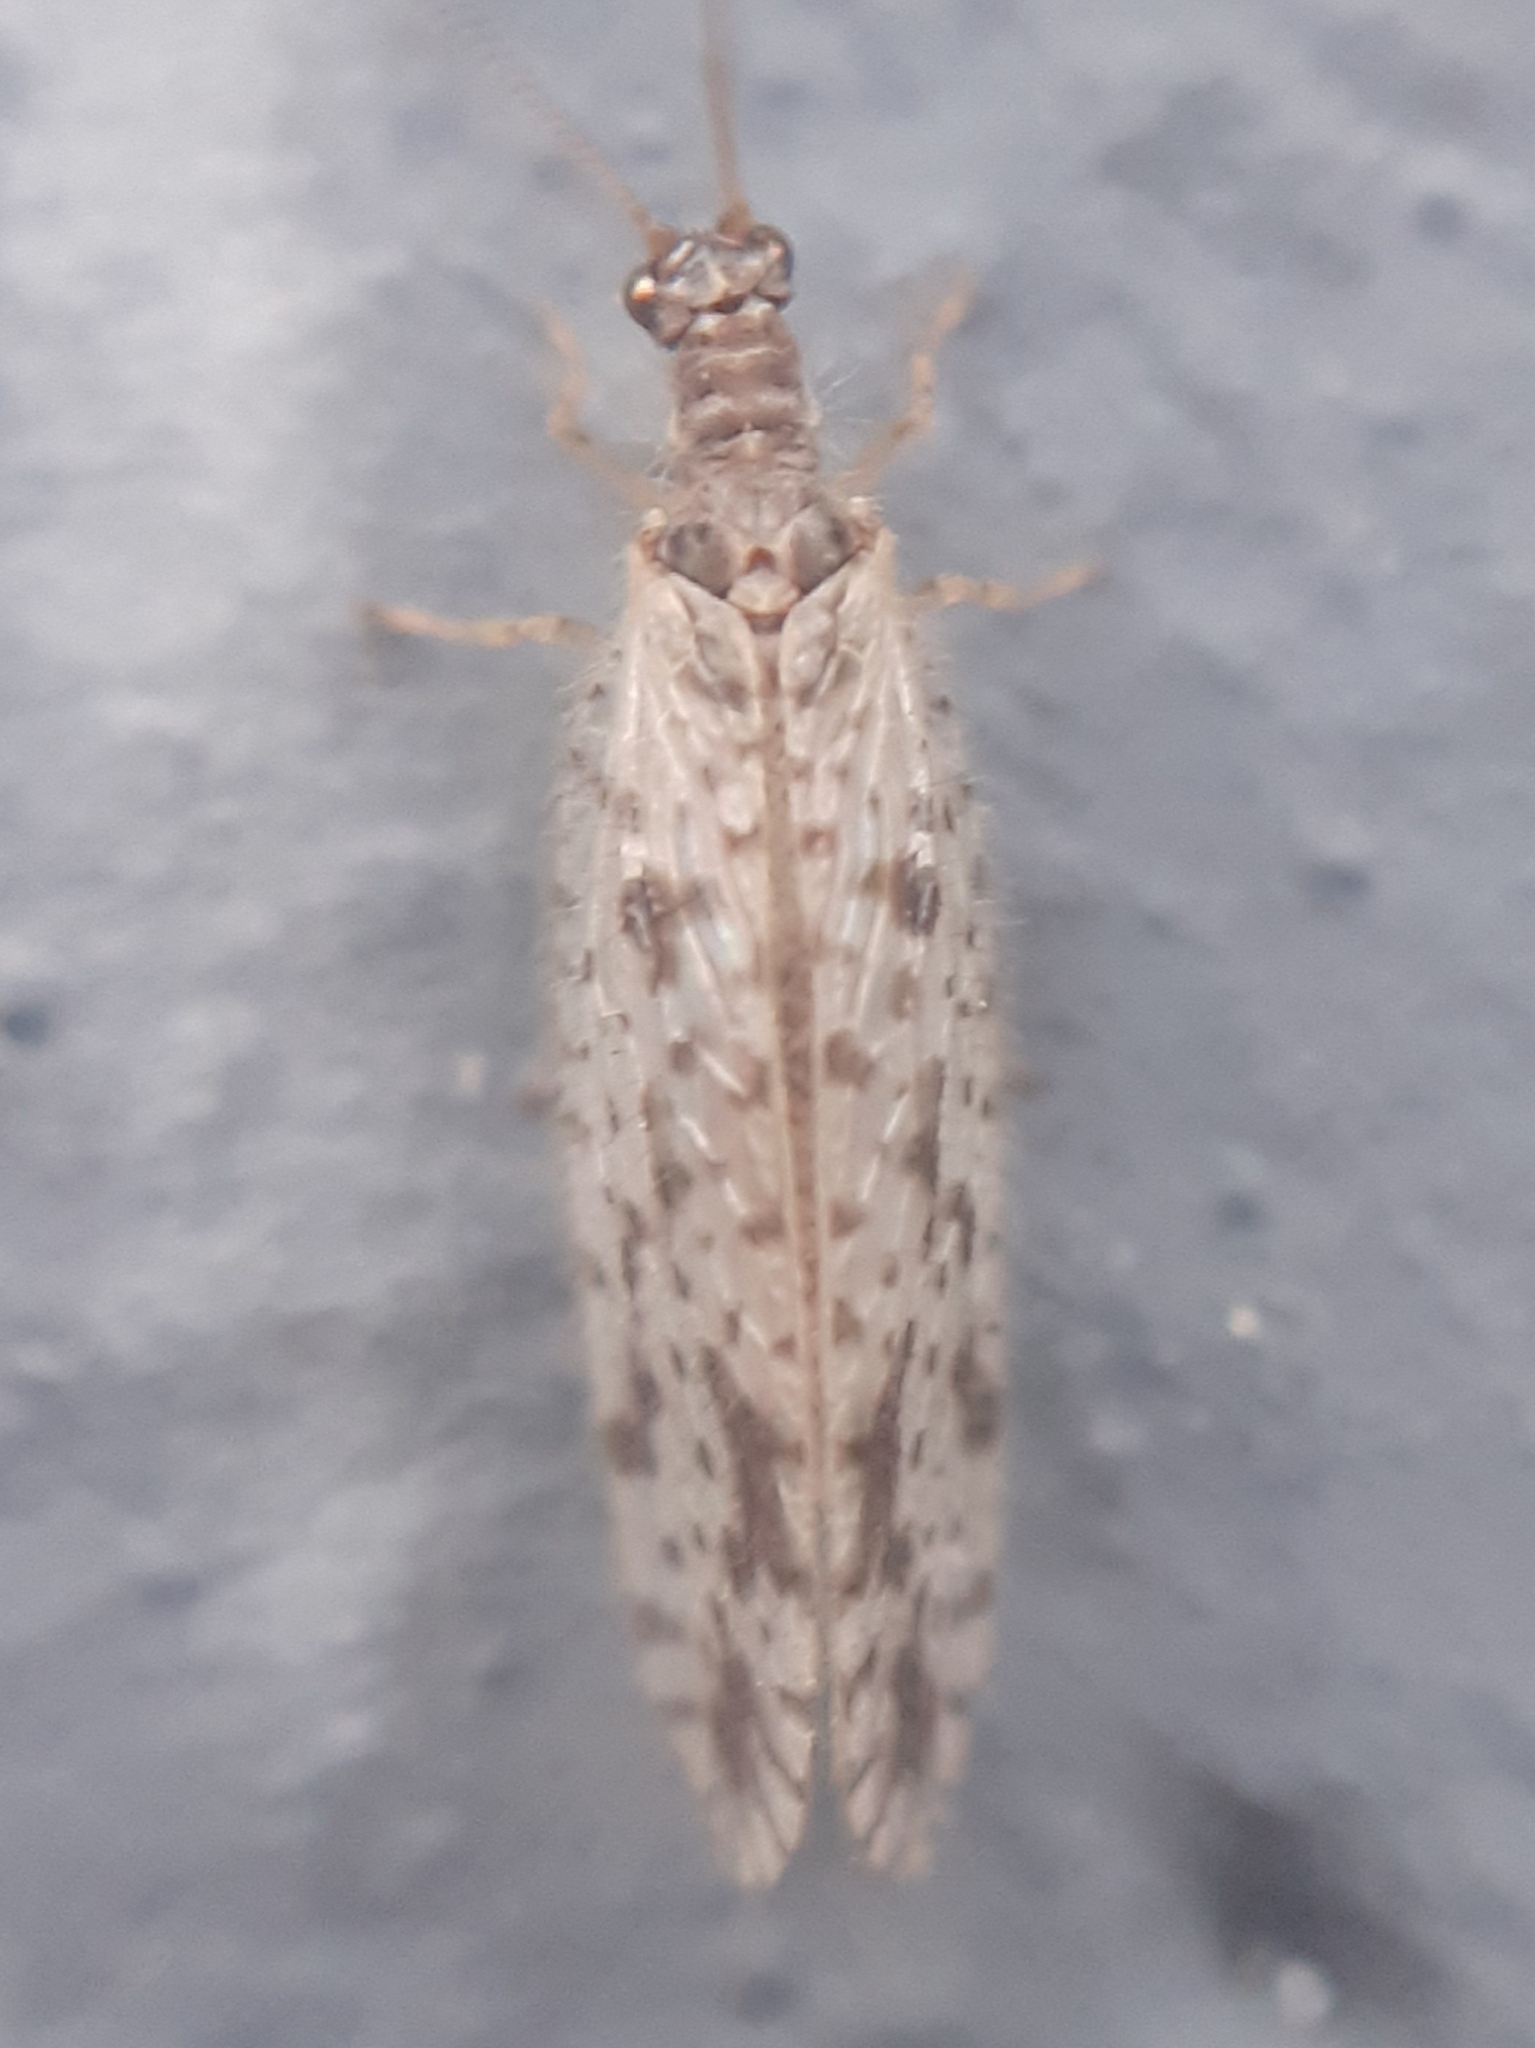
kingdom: Animalia
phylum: Arthropoda
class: Insecta
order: Neuroptera
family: Hemerobiidae
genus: Micromus
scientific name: Micromus variegatus
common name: Brown lacewing
